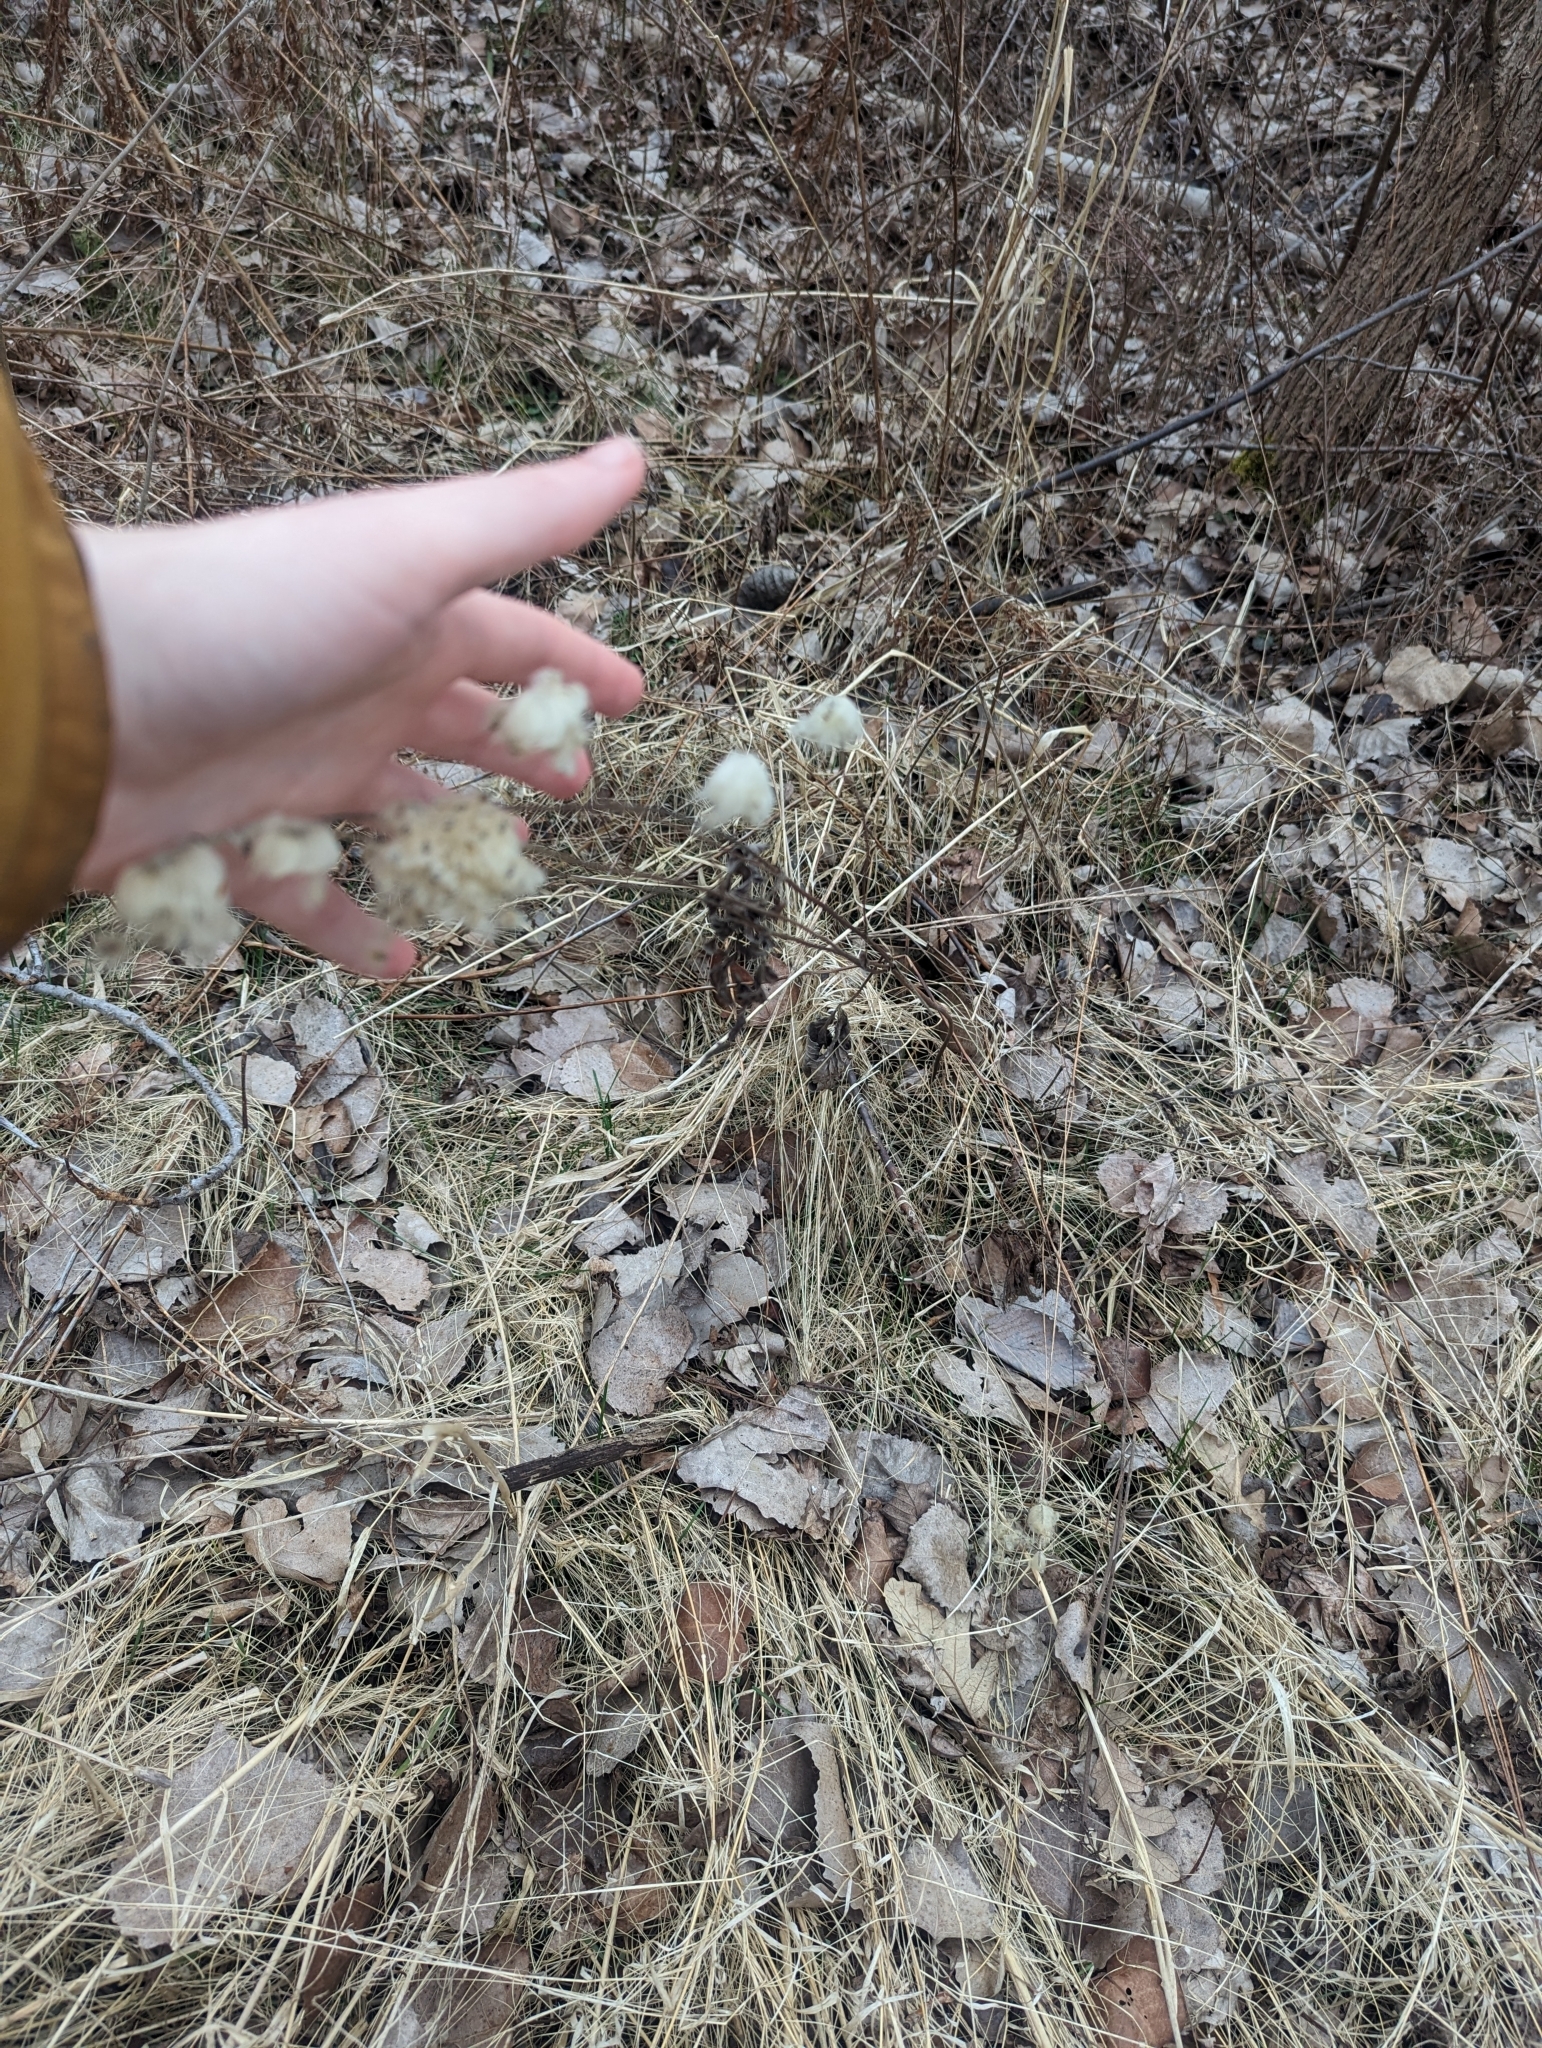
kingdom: Plantae
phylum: Tracheophyta
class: Magnoliopsida
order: Ranunculales
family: Ranunculaceae
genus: Anemone
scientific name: Anemone virginiana
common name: Tall anemone
